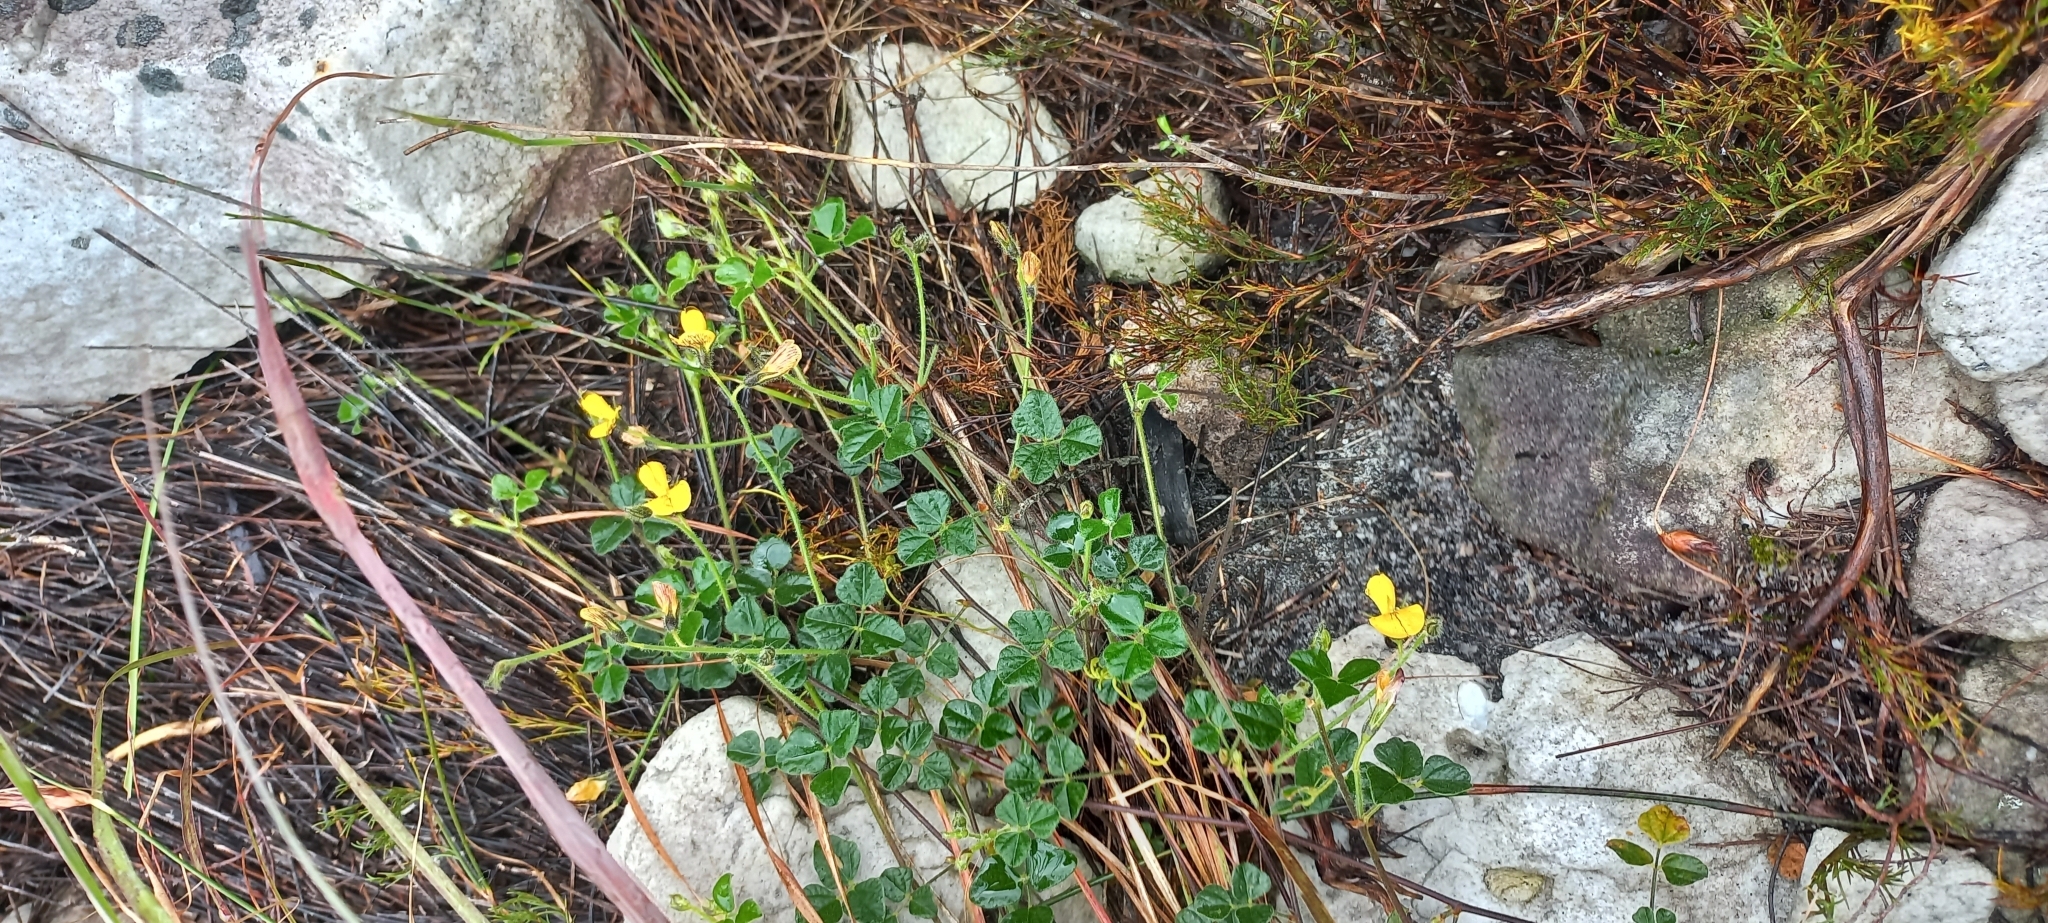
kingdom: Plantae
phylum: Tracheophyta
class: Magnoliopsida
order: Fabales
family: Fabaceae
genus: Bolusafra
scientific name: Bolusafra bituminosa
